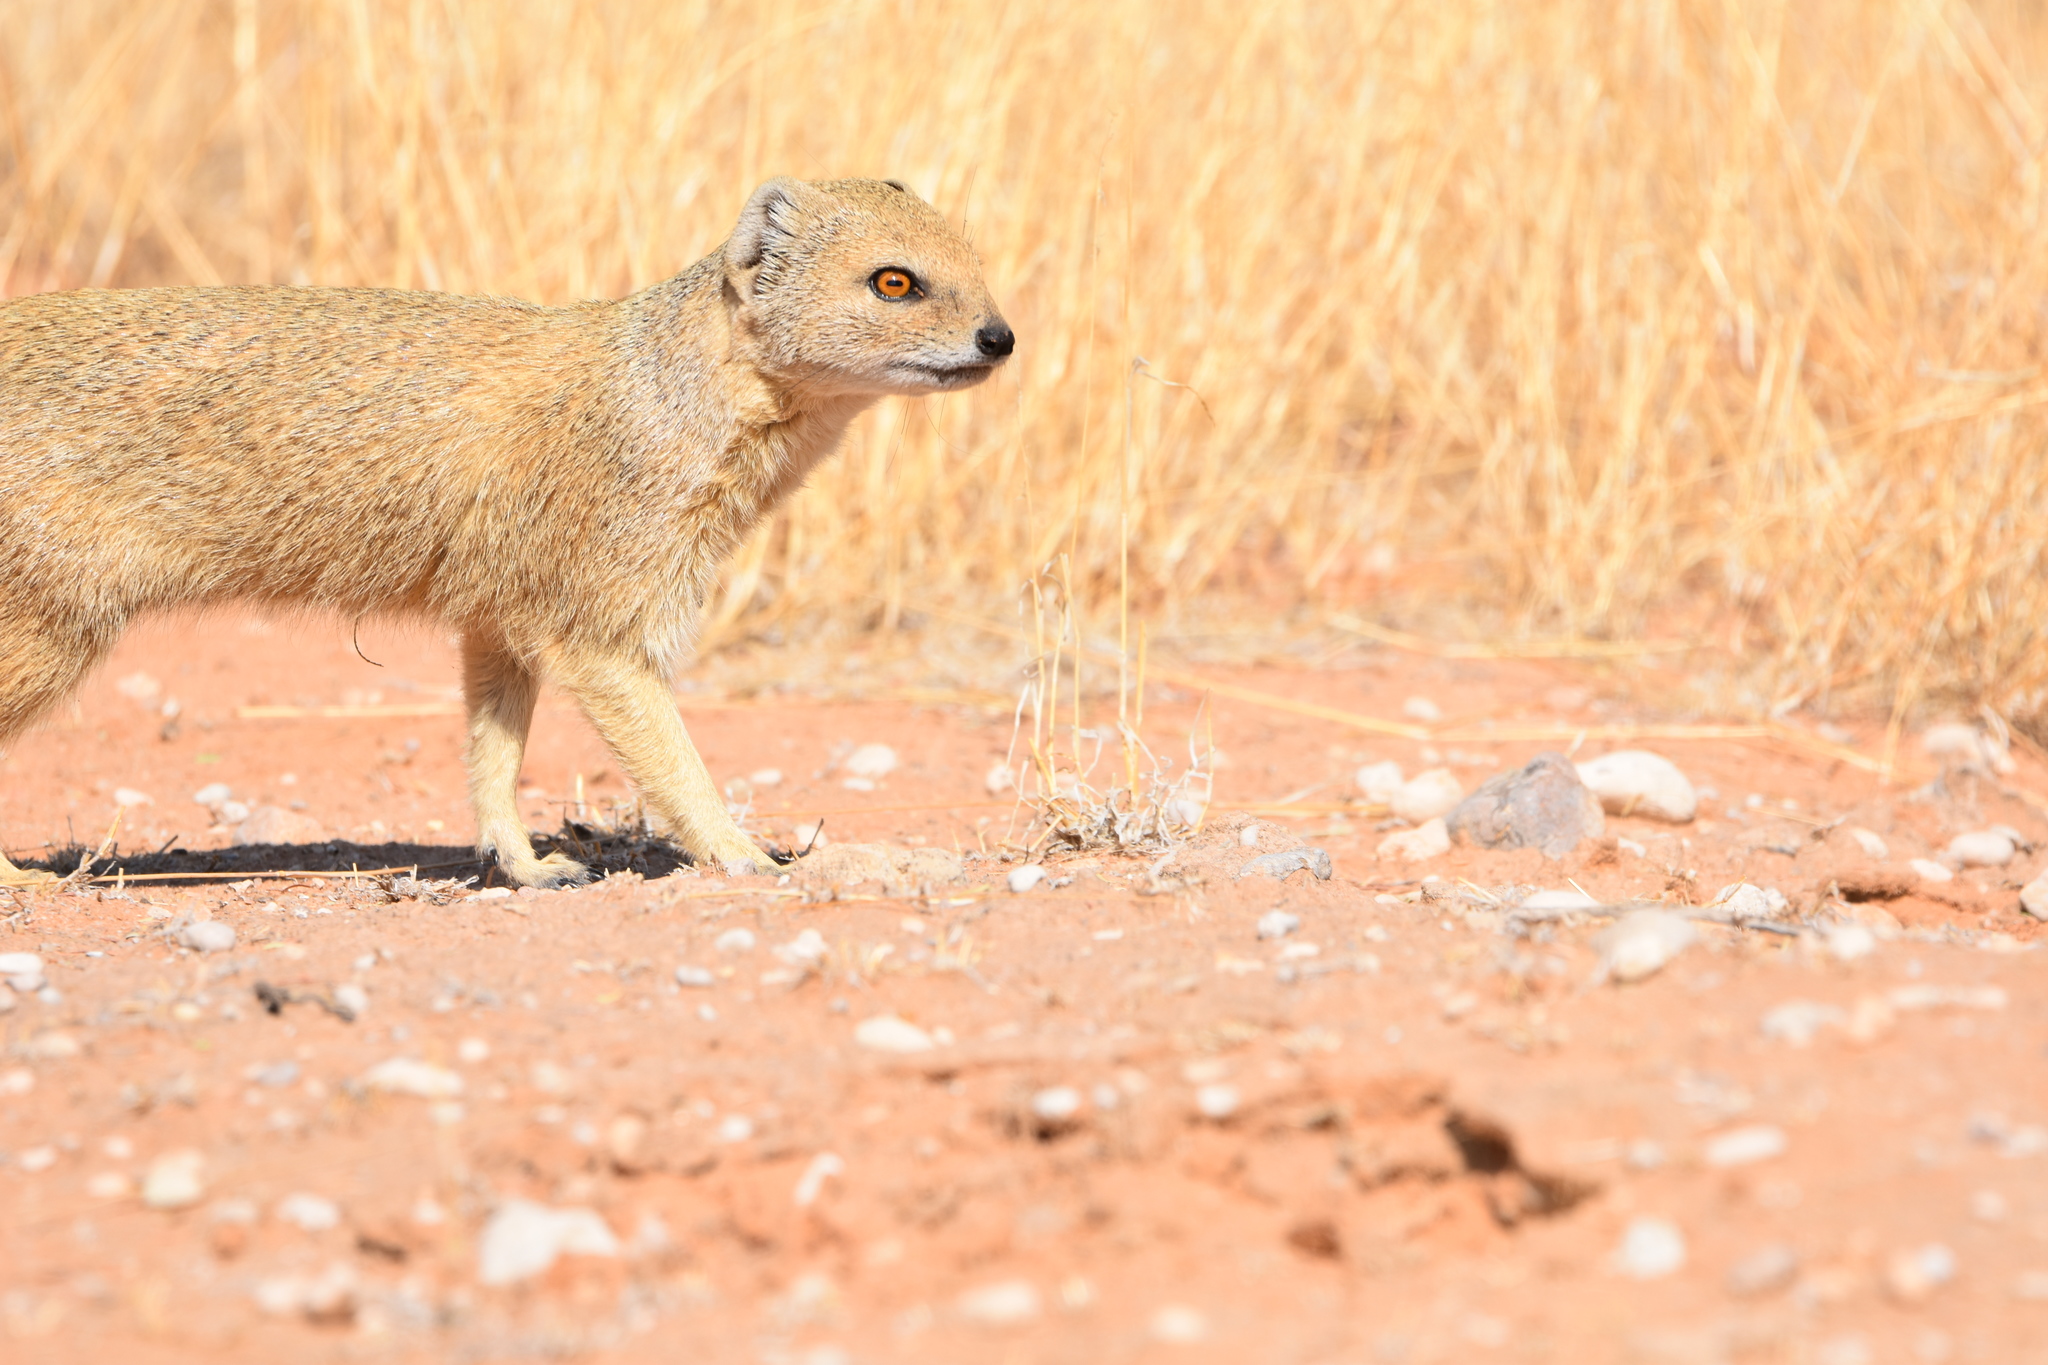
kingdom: Animalia
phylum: Chordata
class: Mammalia
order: Carnivora
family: Herpestidae
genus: Cynictis
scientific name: Cynictis penicillata
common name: Yellow mongoose
